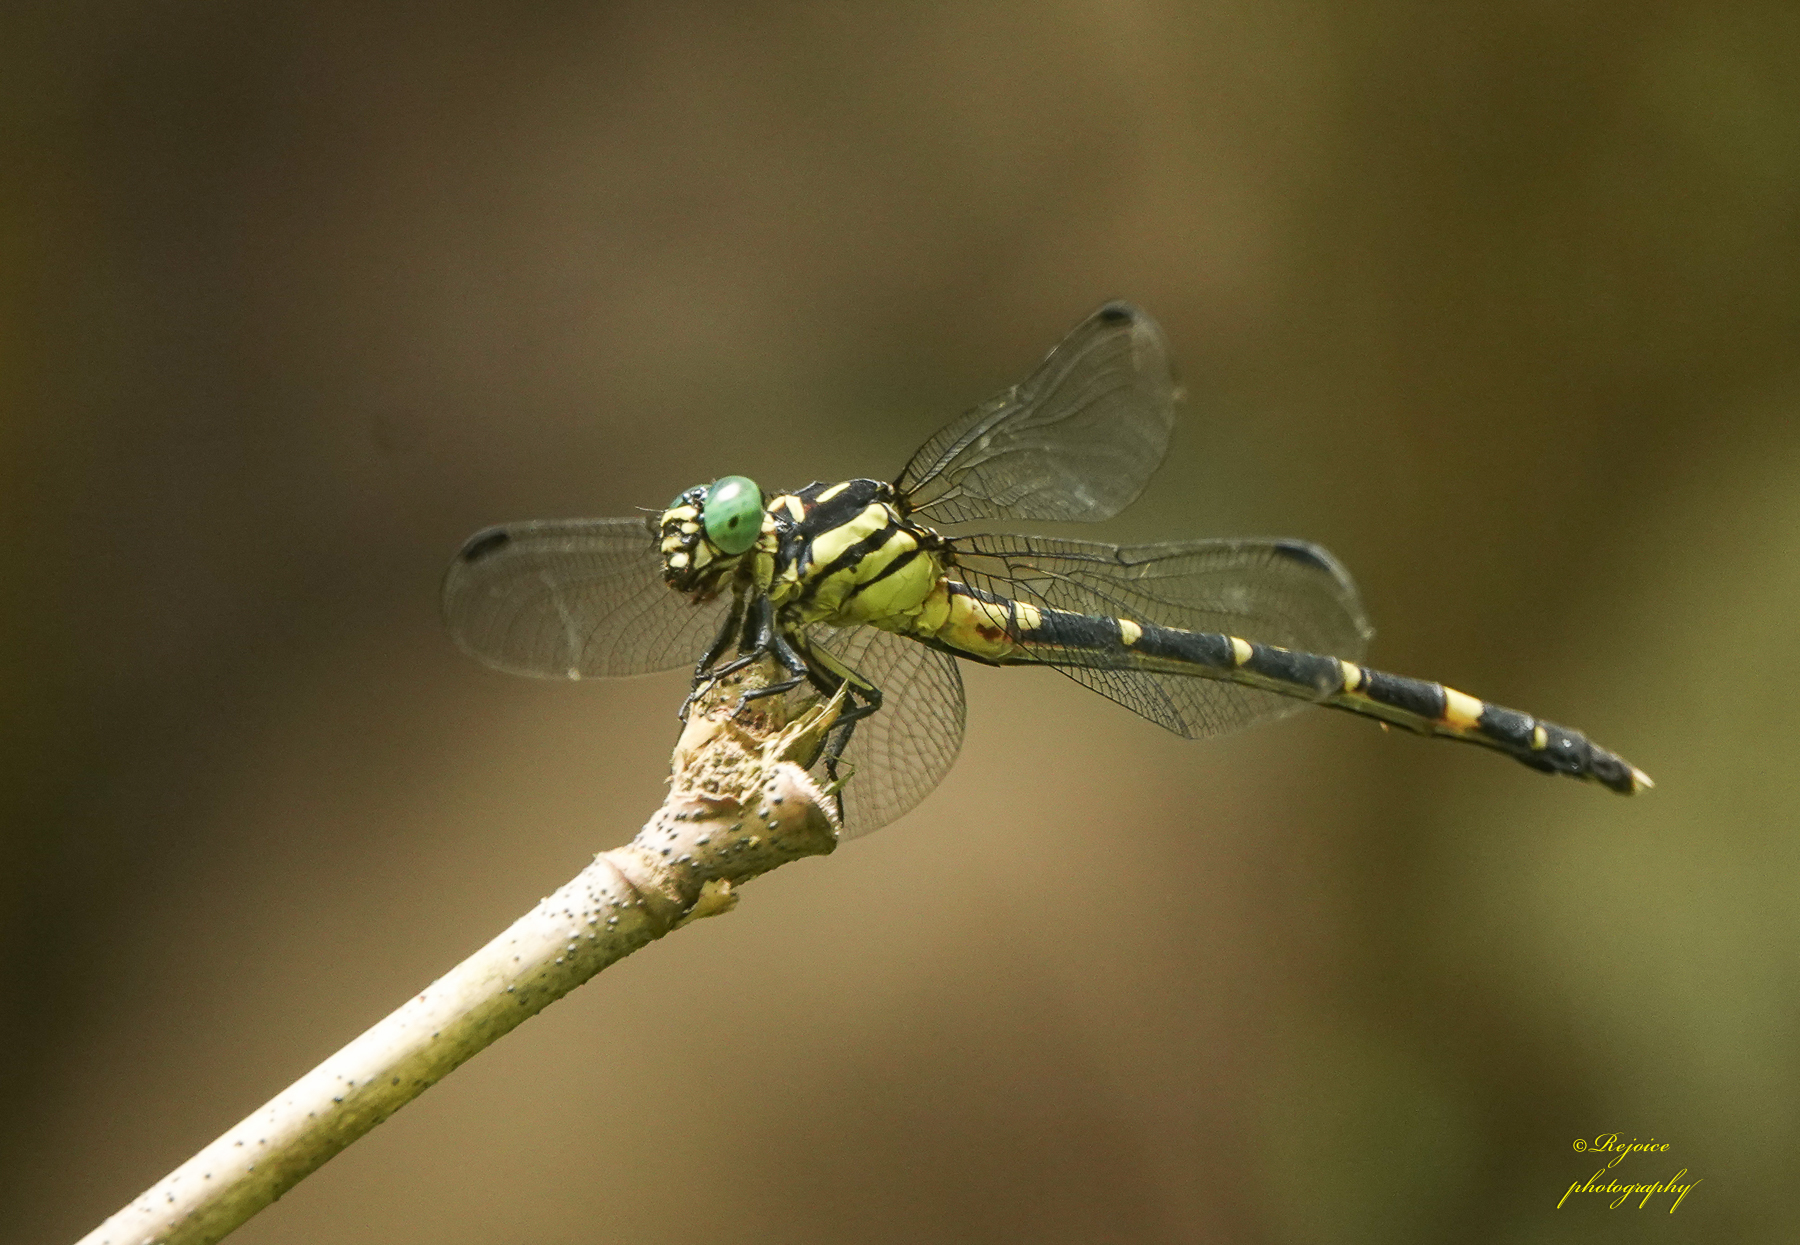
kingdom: Animalia
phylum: Arthropoda
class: Insecta
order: Odonata
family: Gomphidae
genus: Orientogomphus
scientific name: Orientogomphus indicus
